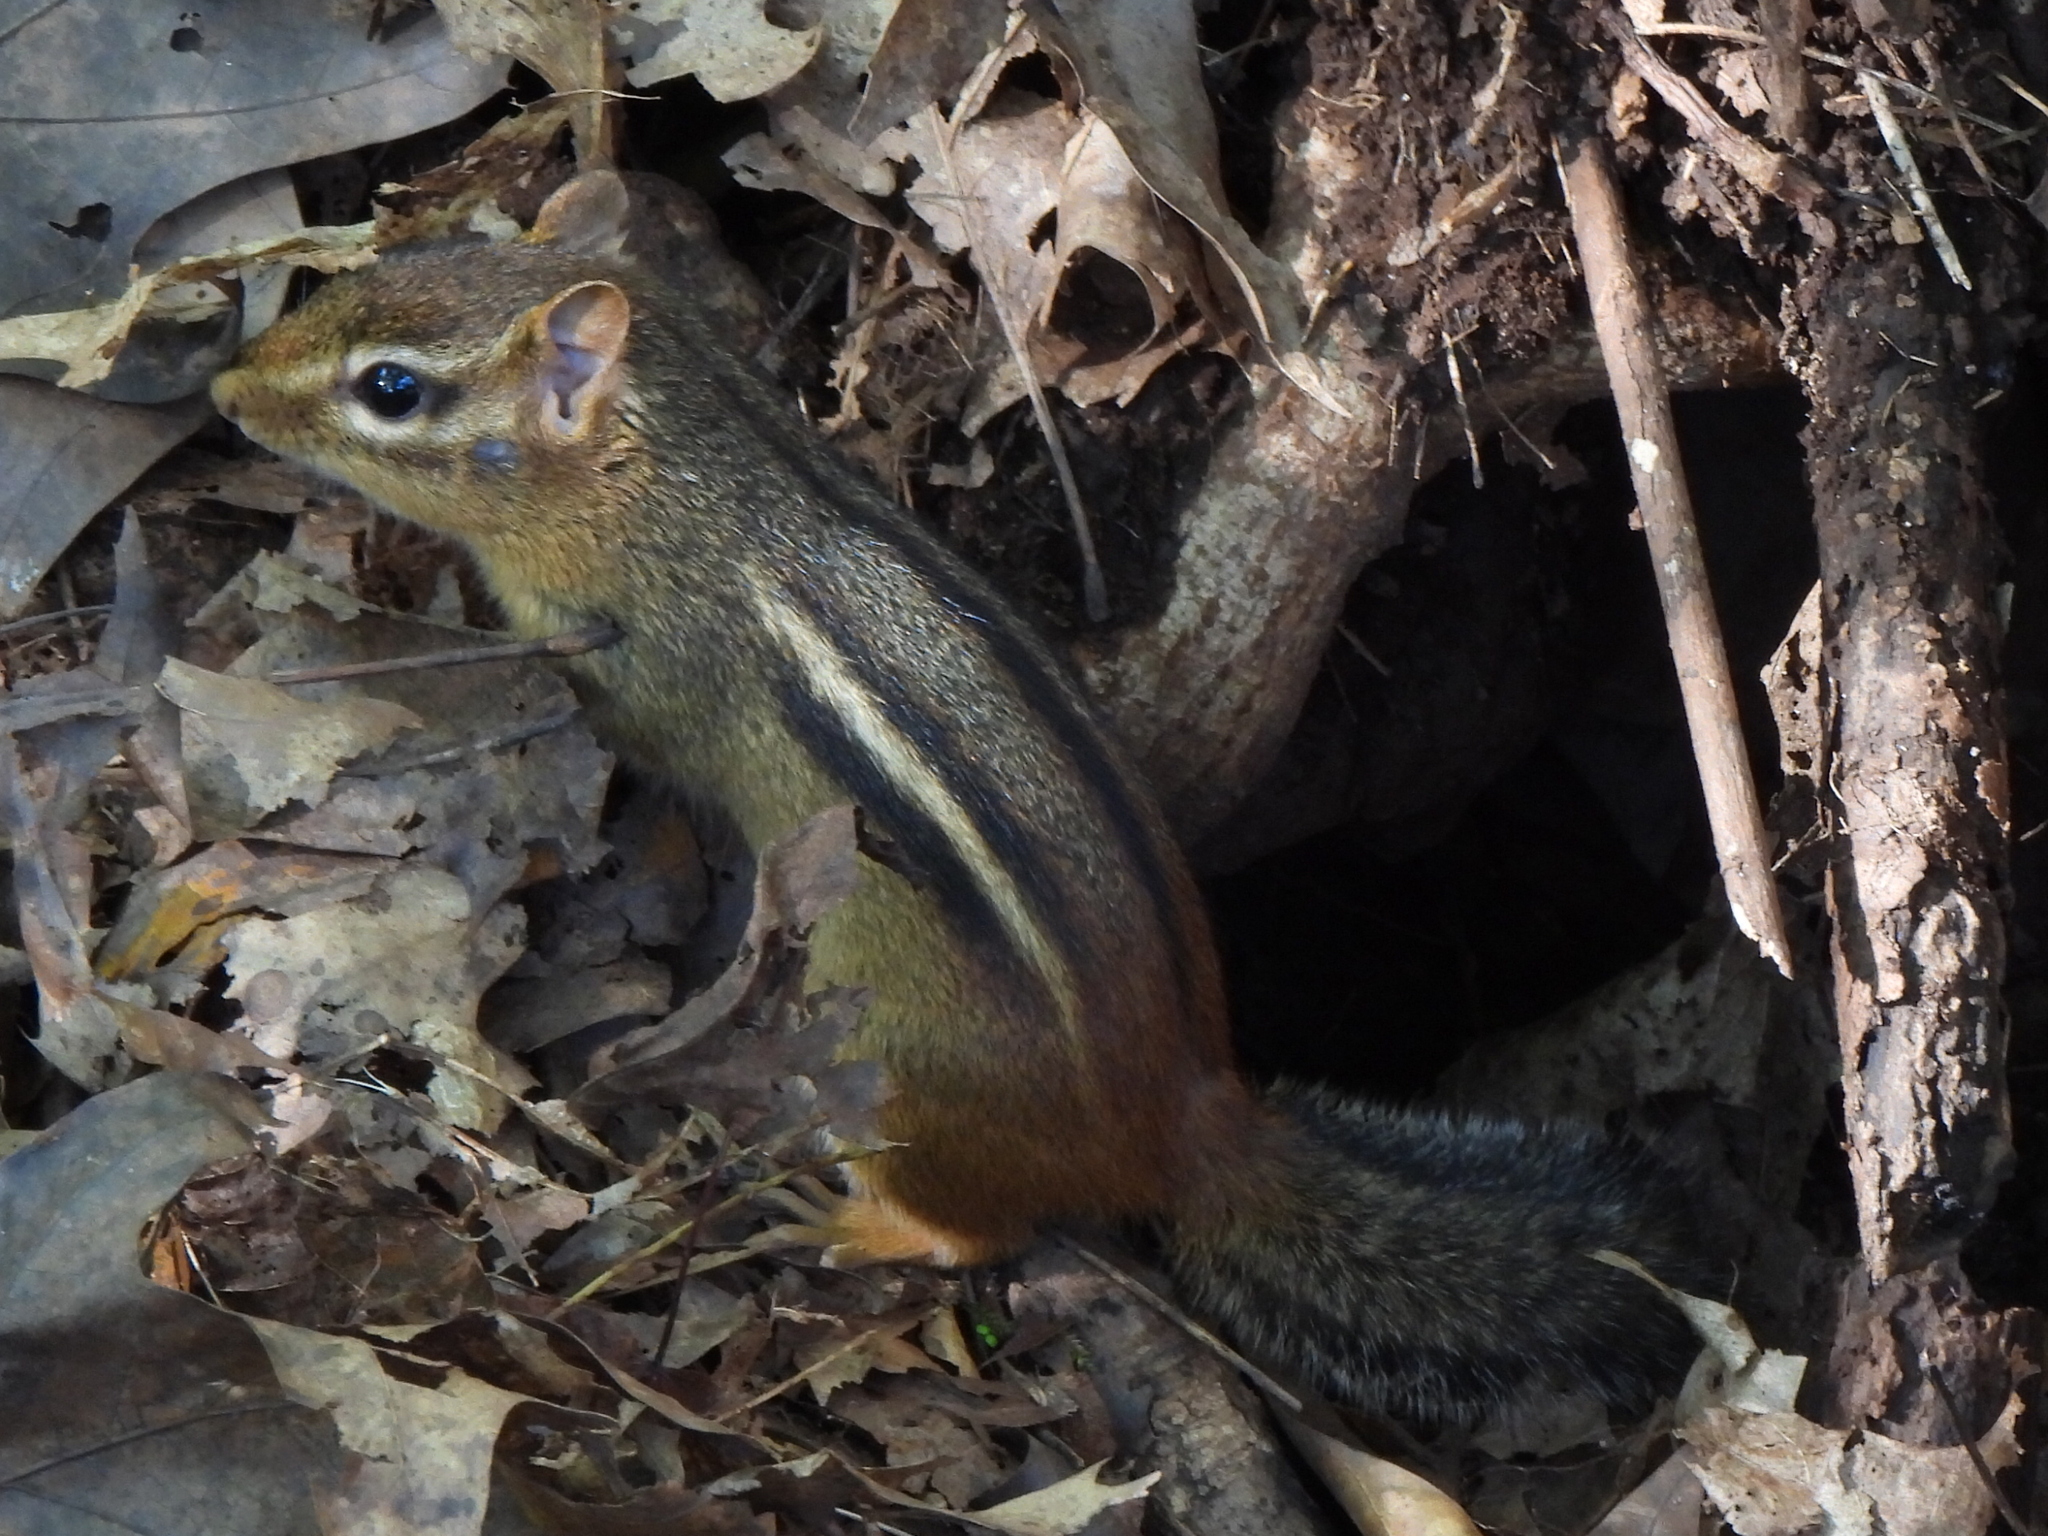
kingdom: Animalia
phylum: Chordata
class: Mammalia
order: Rodentia
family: Sciuridae
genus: Tamias
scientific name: Tamias striatus
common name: Eastern chipmunk
